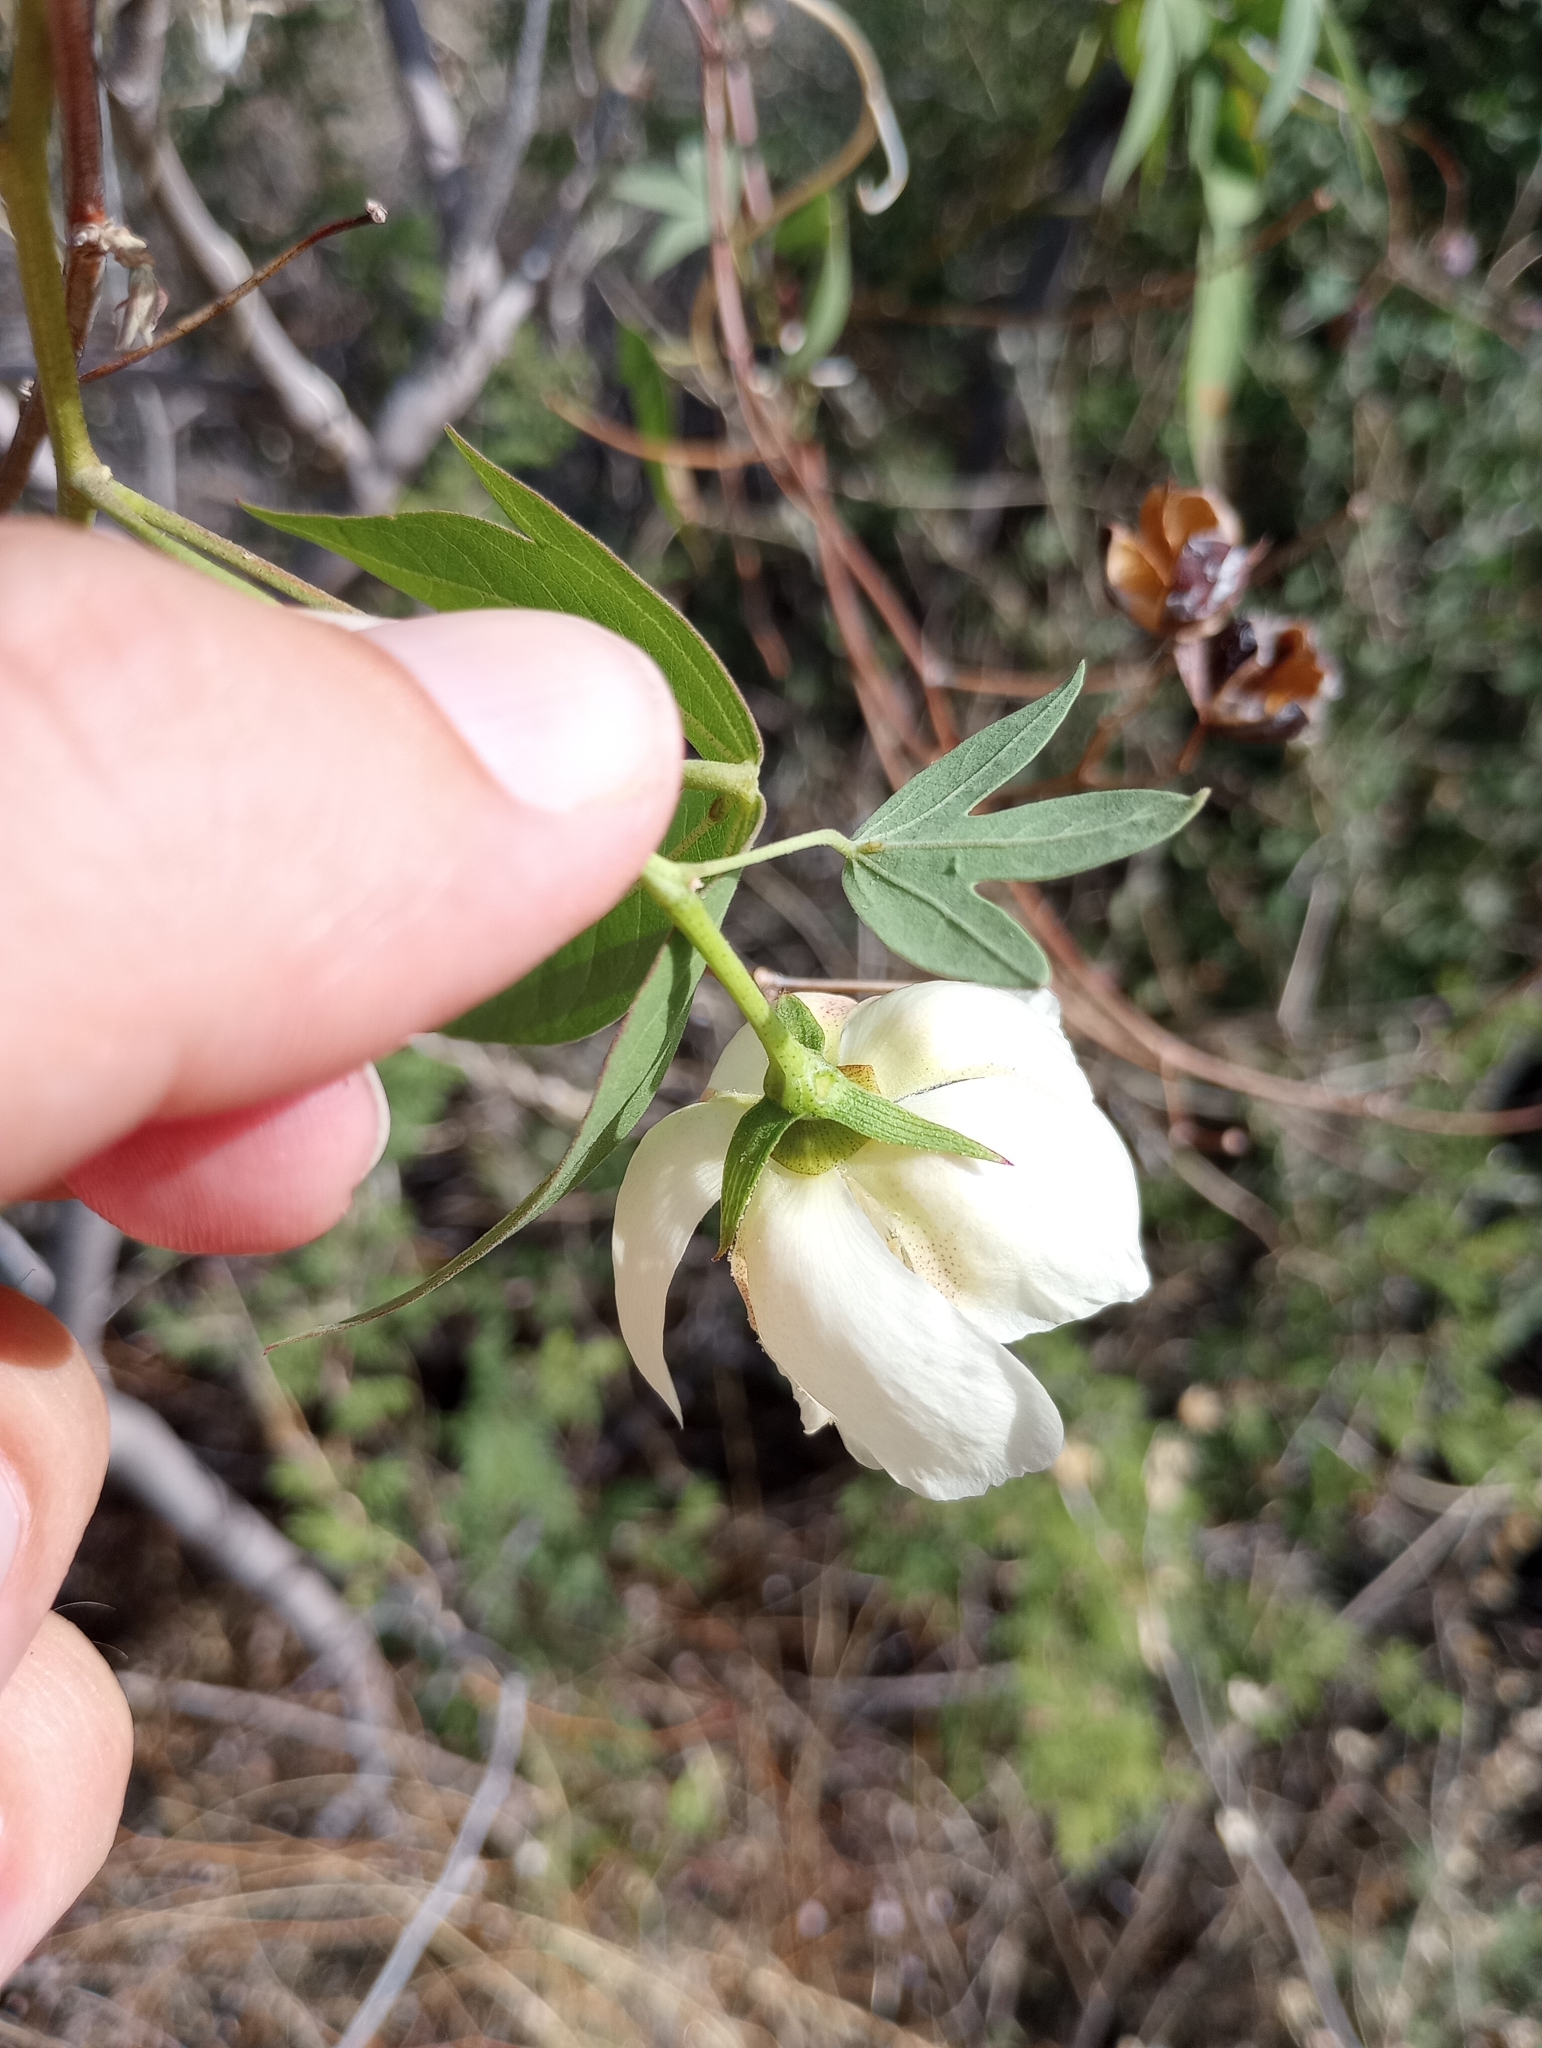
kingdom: Plantae
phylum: Tracheophyta
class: Magnoliopsida
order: Malvales
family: Malvaceae
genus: Gossypium
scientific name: Gossypium thurberi
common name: Desert cotton
